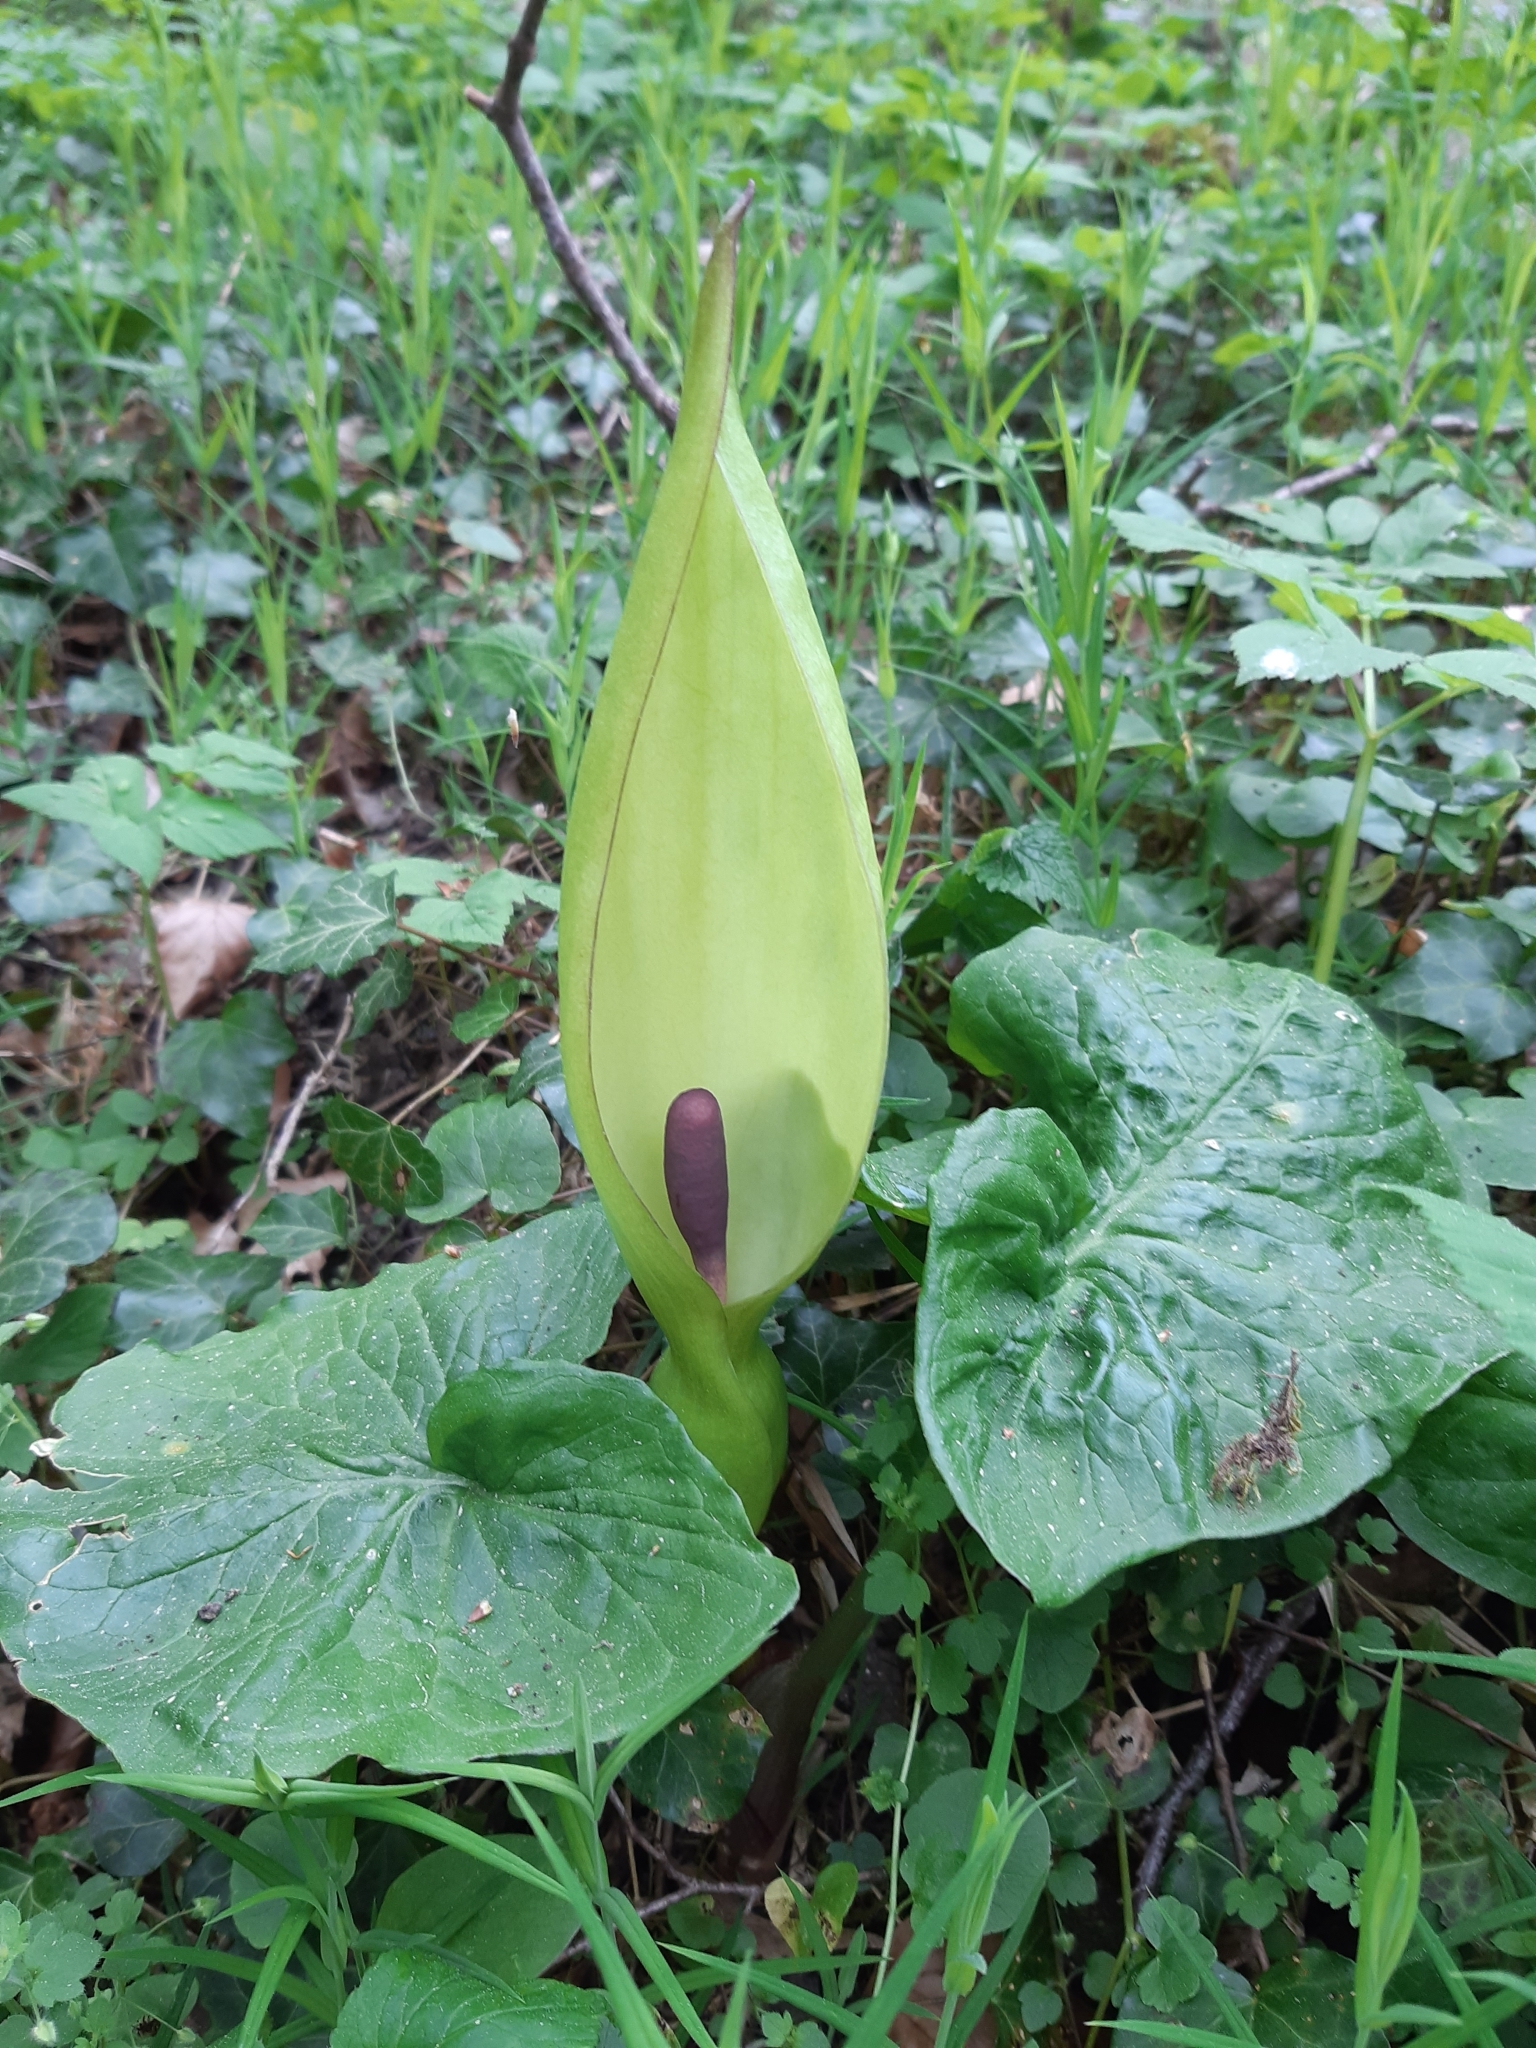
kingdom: Plantae
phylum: Tracheophyta
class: Liliopsida
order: Alismatales
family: Araceae
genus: Arum
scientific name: Arum maculatum
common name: Lords-and-ladies
